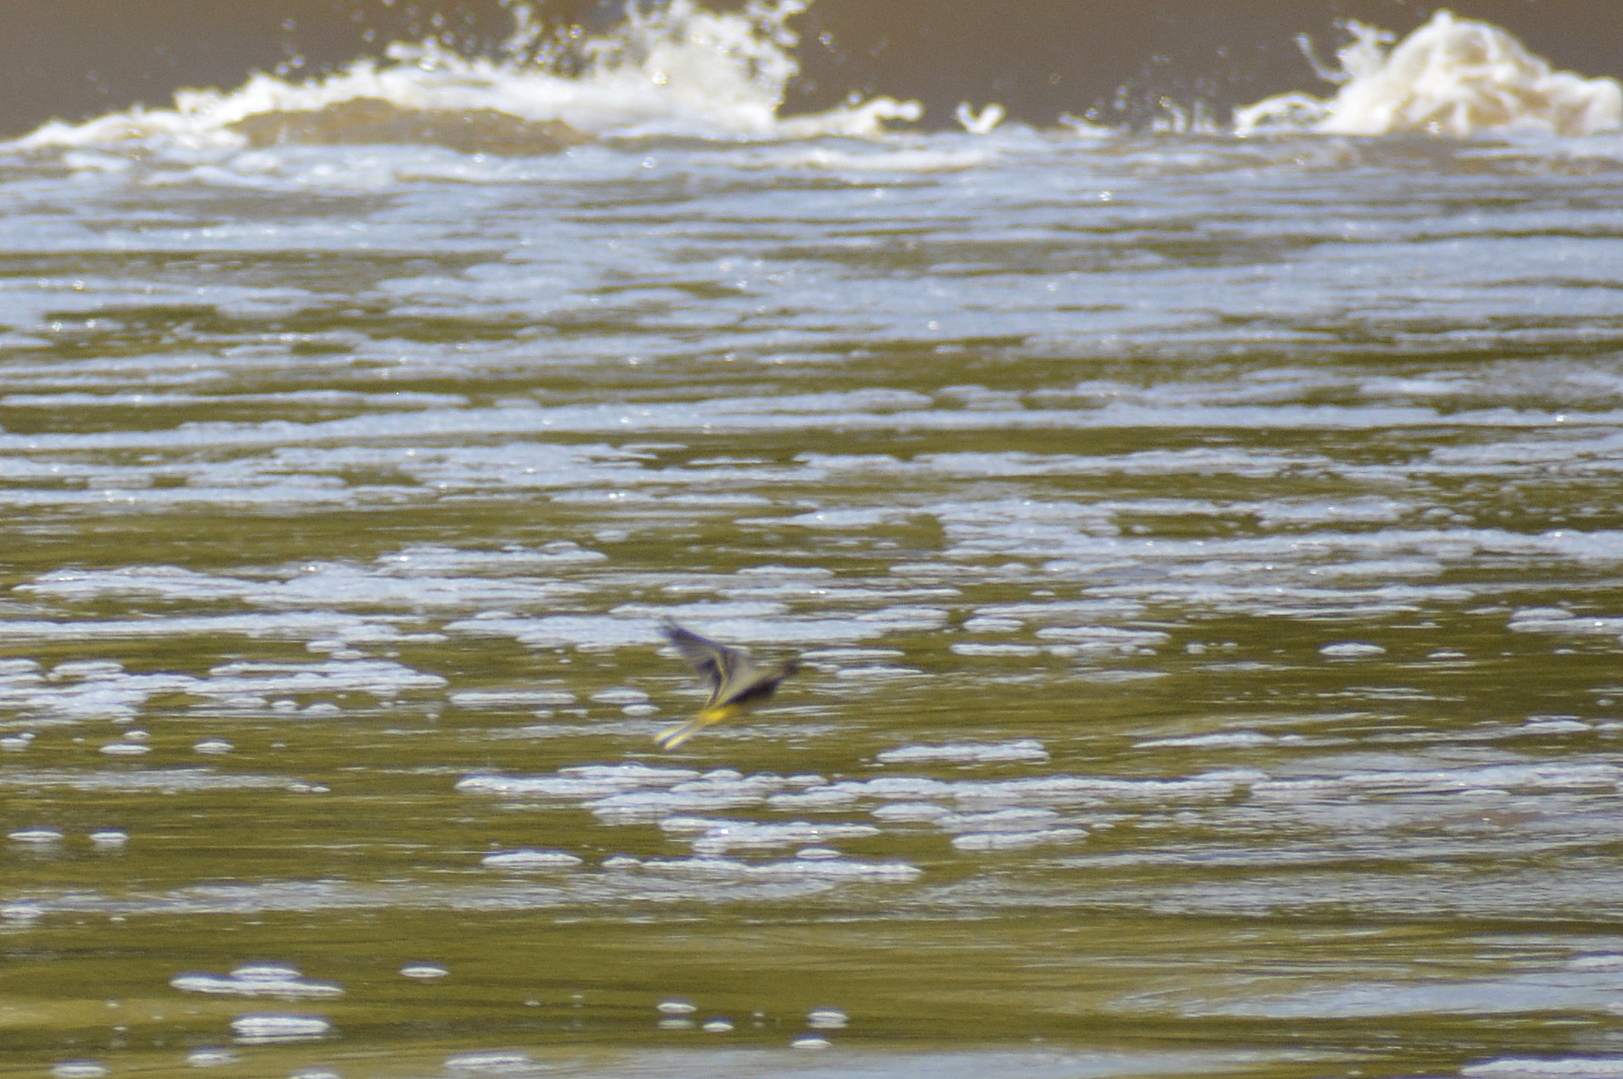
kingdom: Animalia
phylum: Chordata
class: Aves
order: Passeriformes
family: Motacillidae
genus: Motacilla
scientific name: Motacilla cinerea
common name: Grey wagtail
